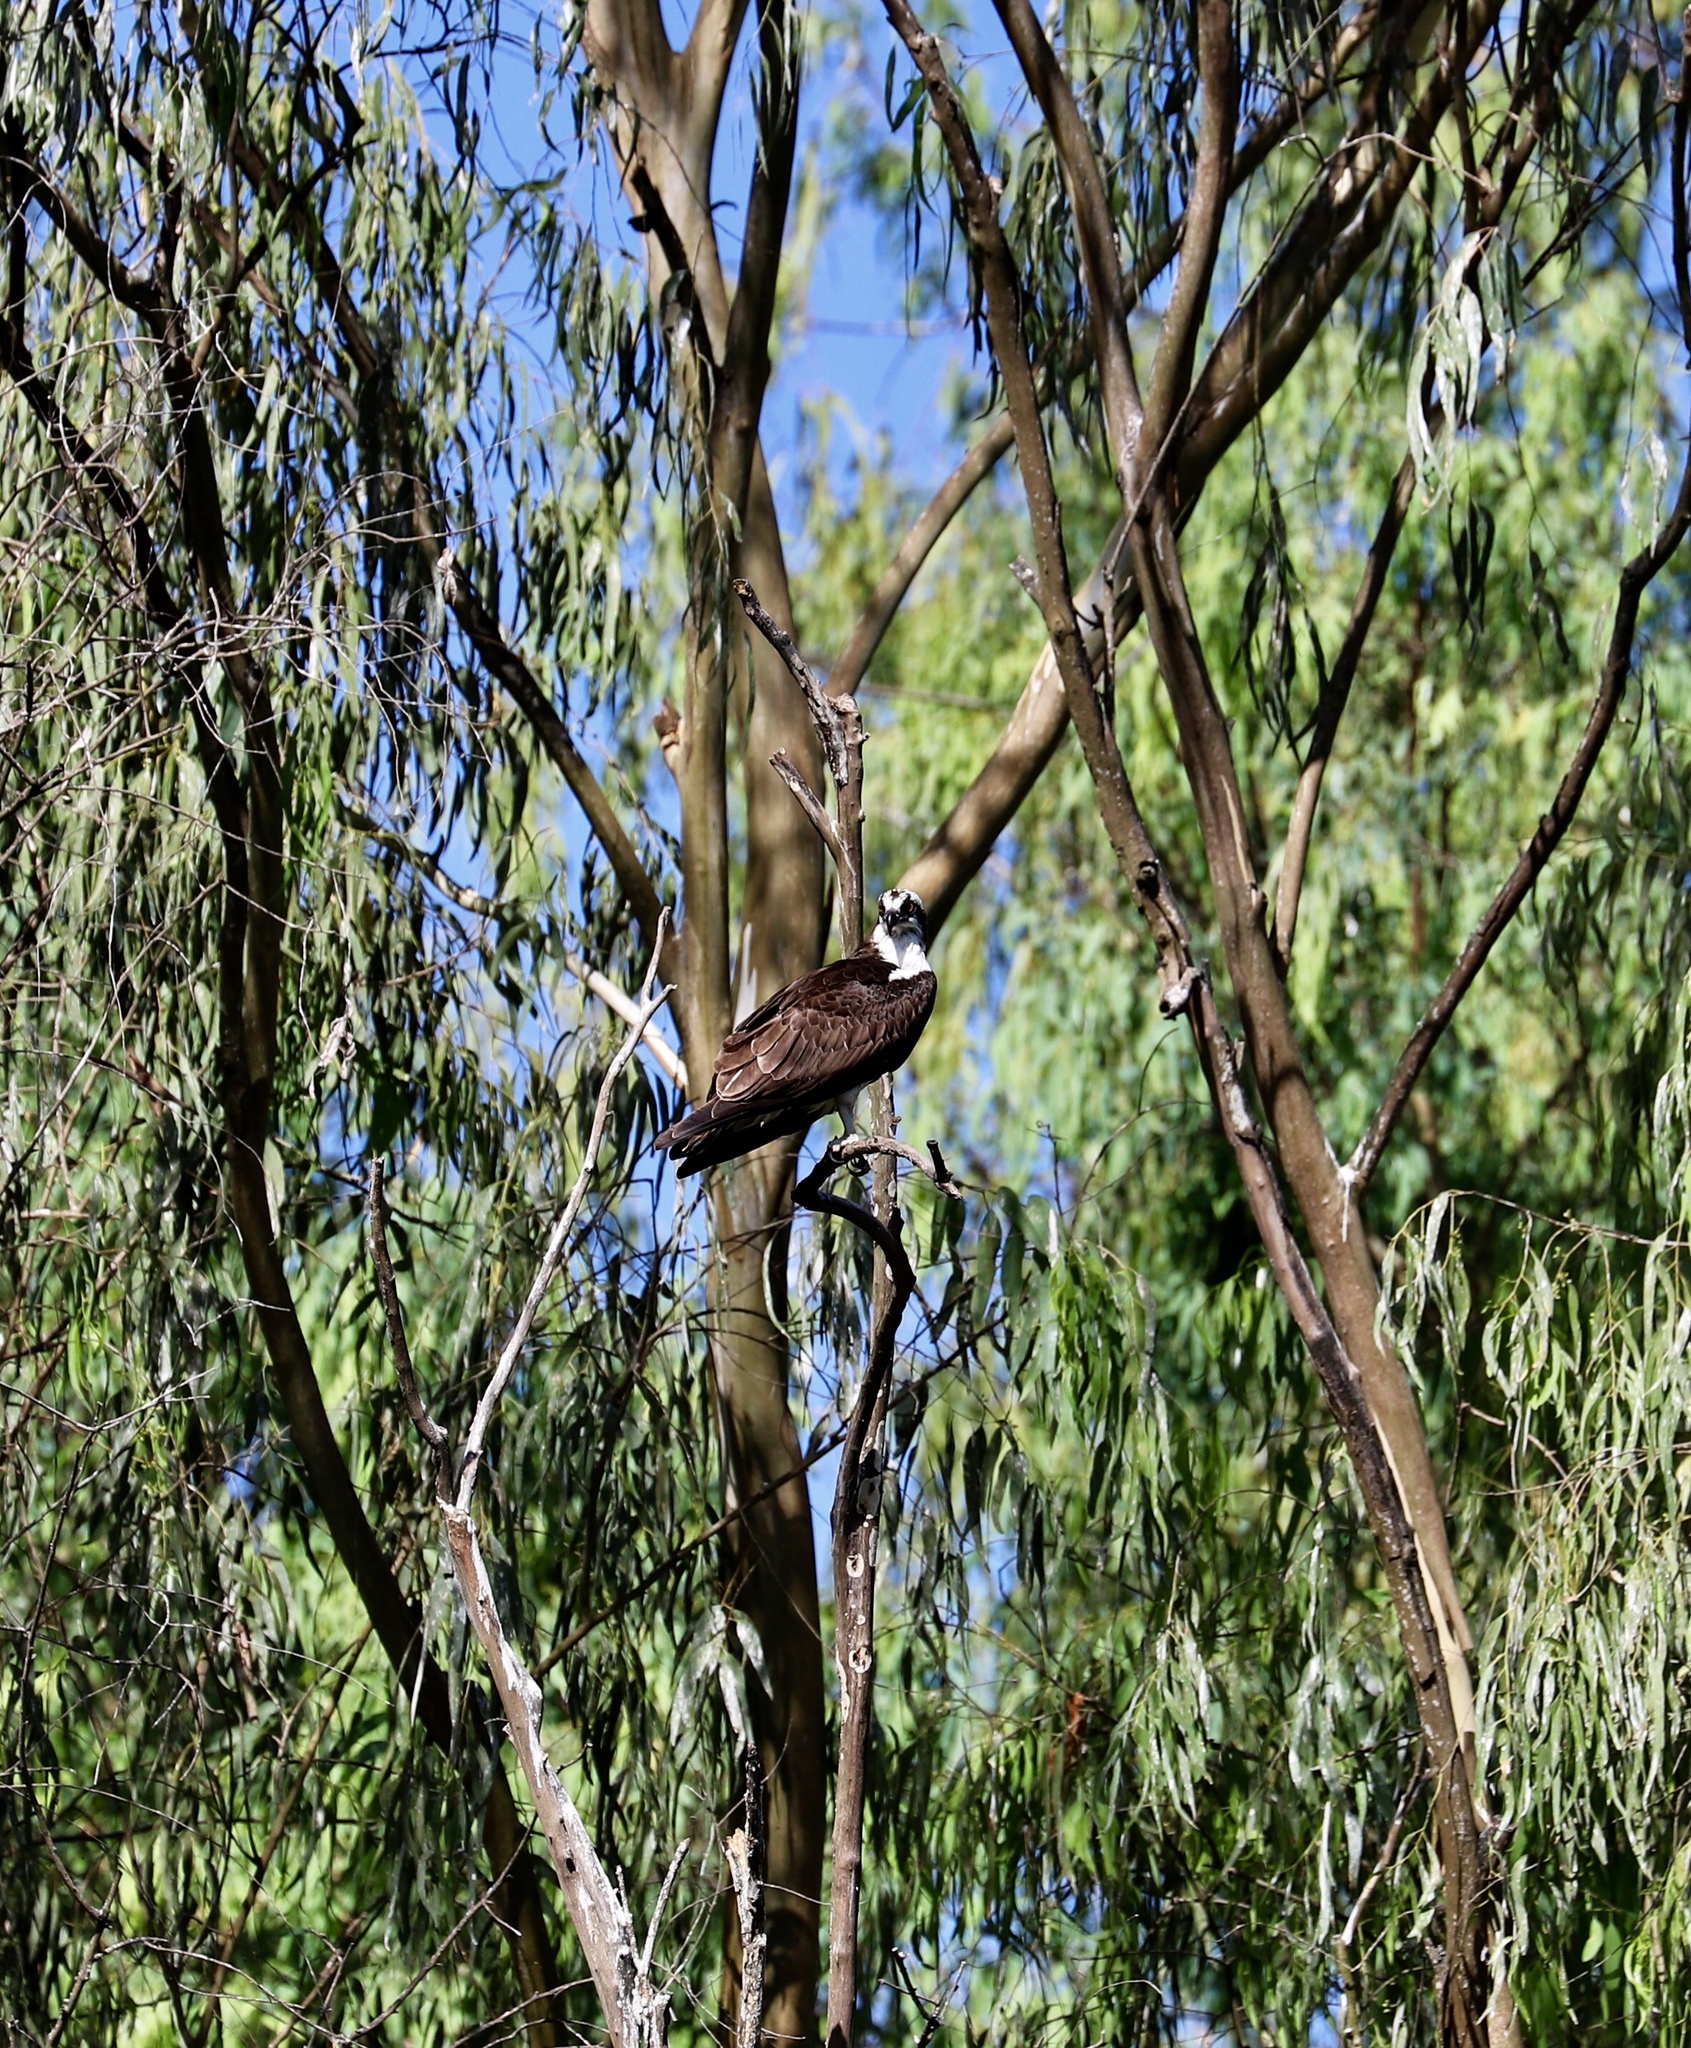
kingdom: Animalia
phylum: Chordata
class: Aves
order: Accipitriformes
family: Pandionidae
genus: Pandion
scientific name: Pandion haliaetus
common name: Osprey
